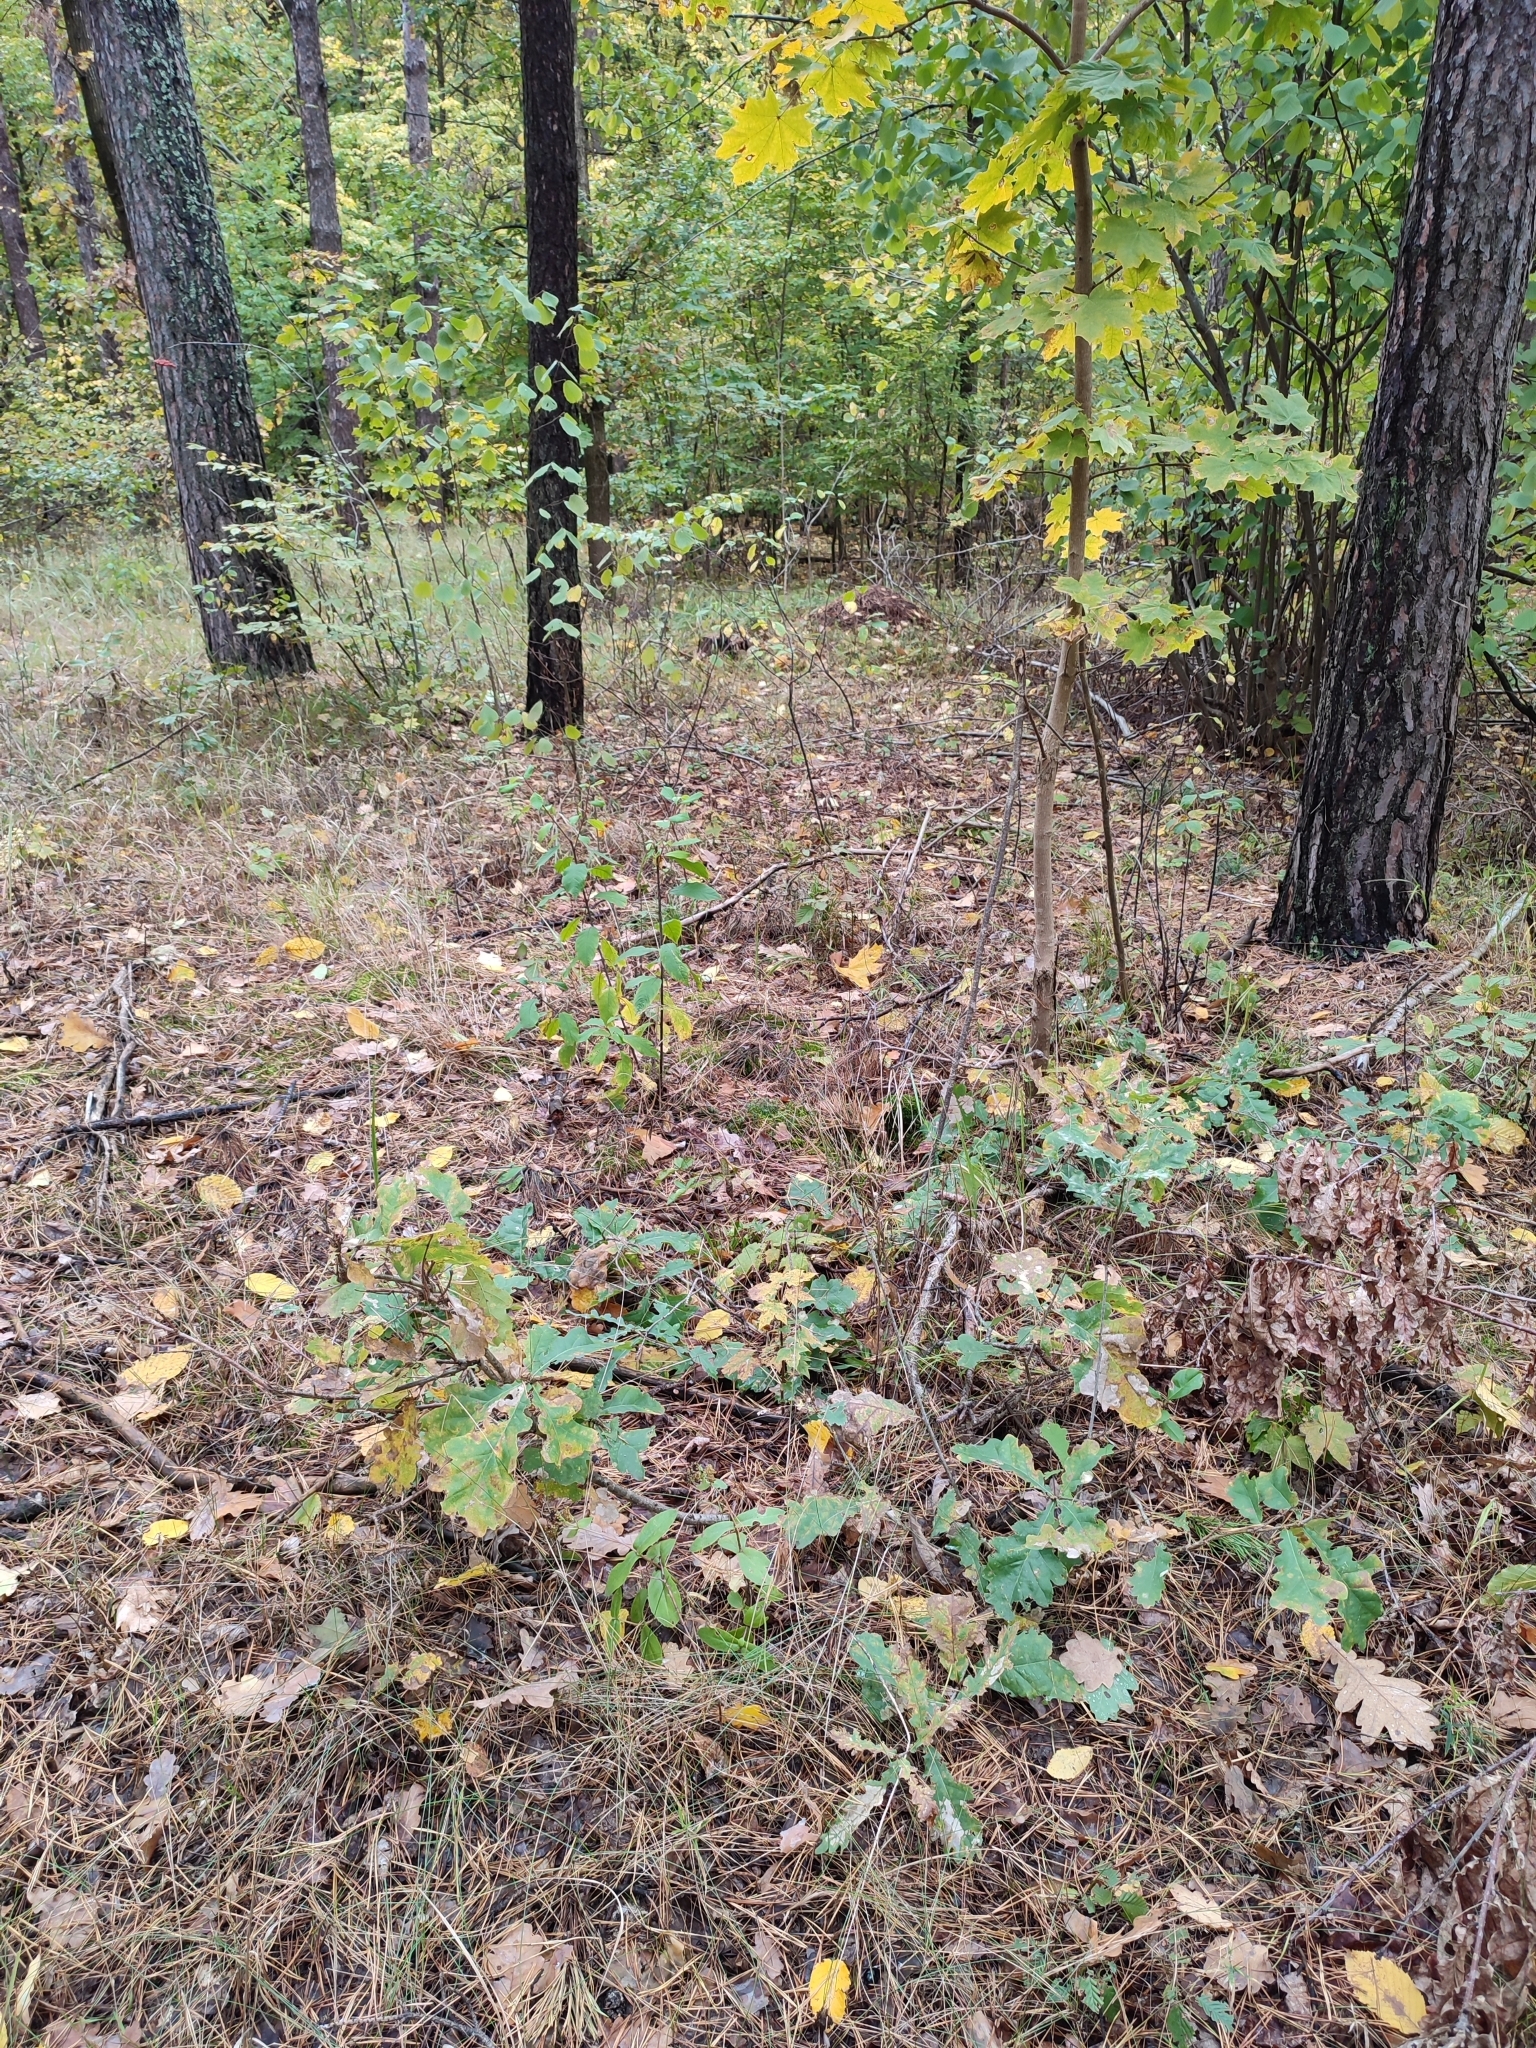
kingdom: Plantae
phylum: Tracheophyta
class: Magnoliopsida
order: Fagales
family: Fagaceae
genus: Quercus
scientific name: Quercus robur
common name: Pedunculate oak
